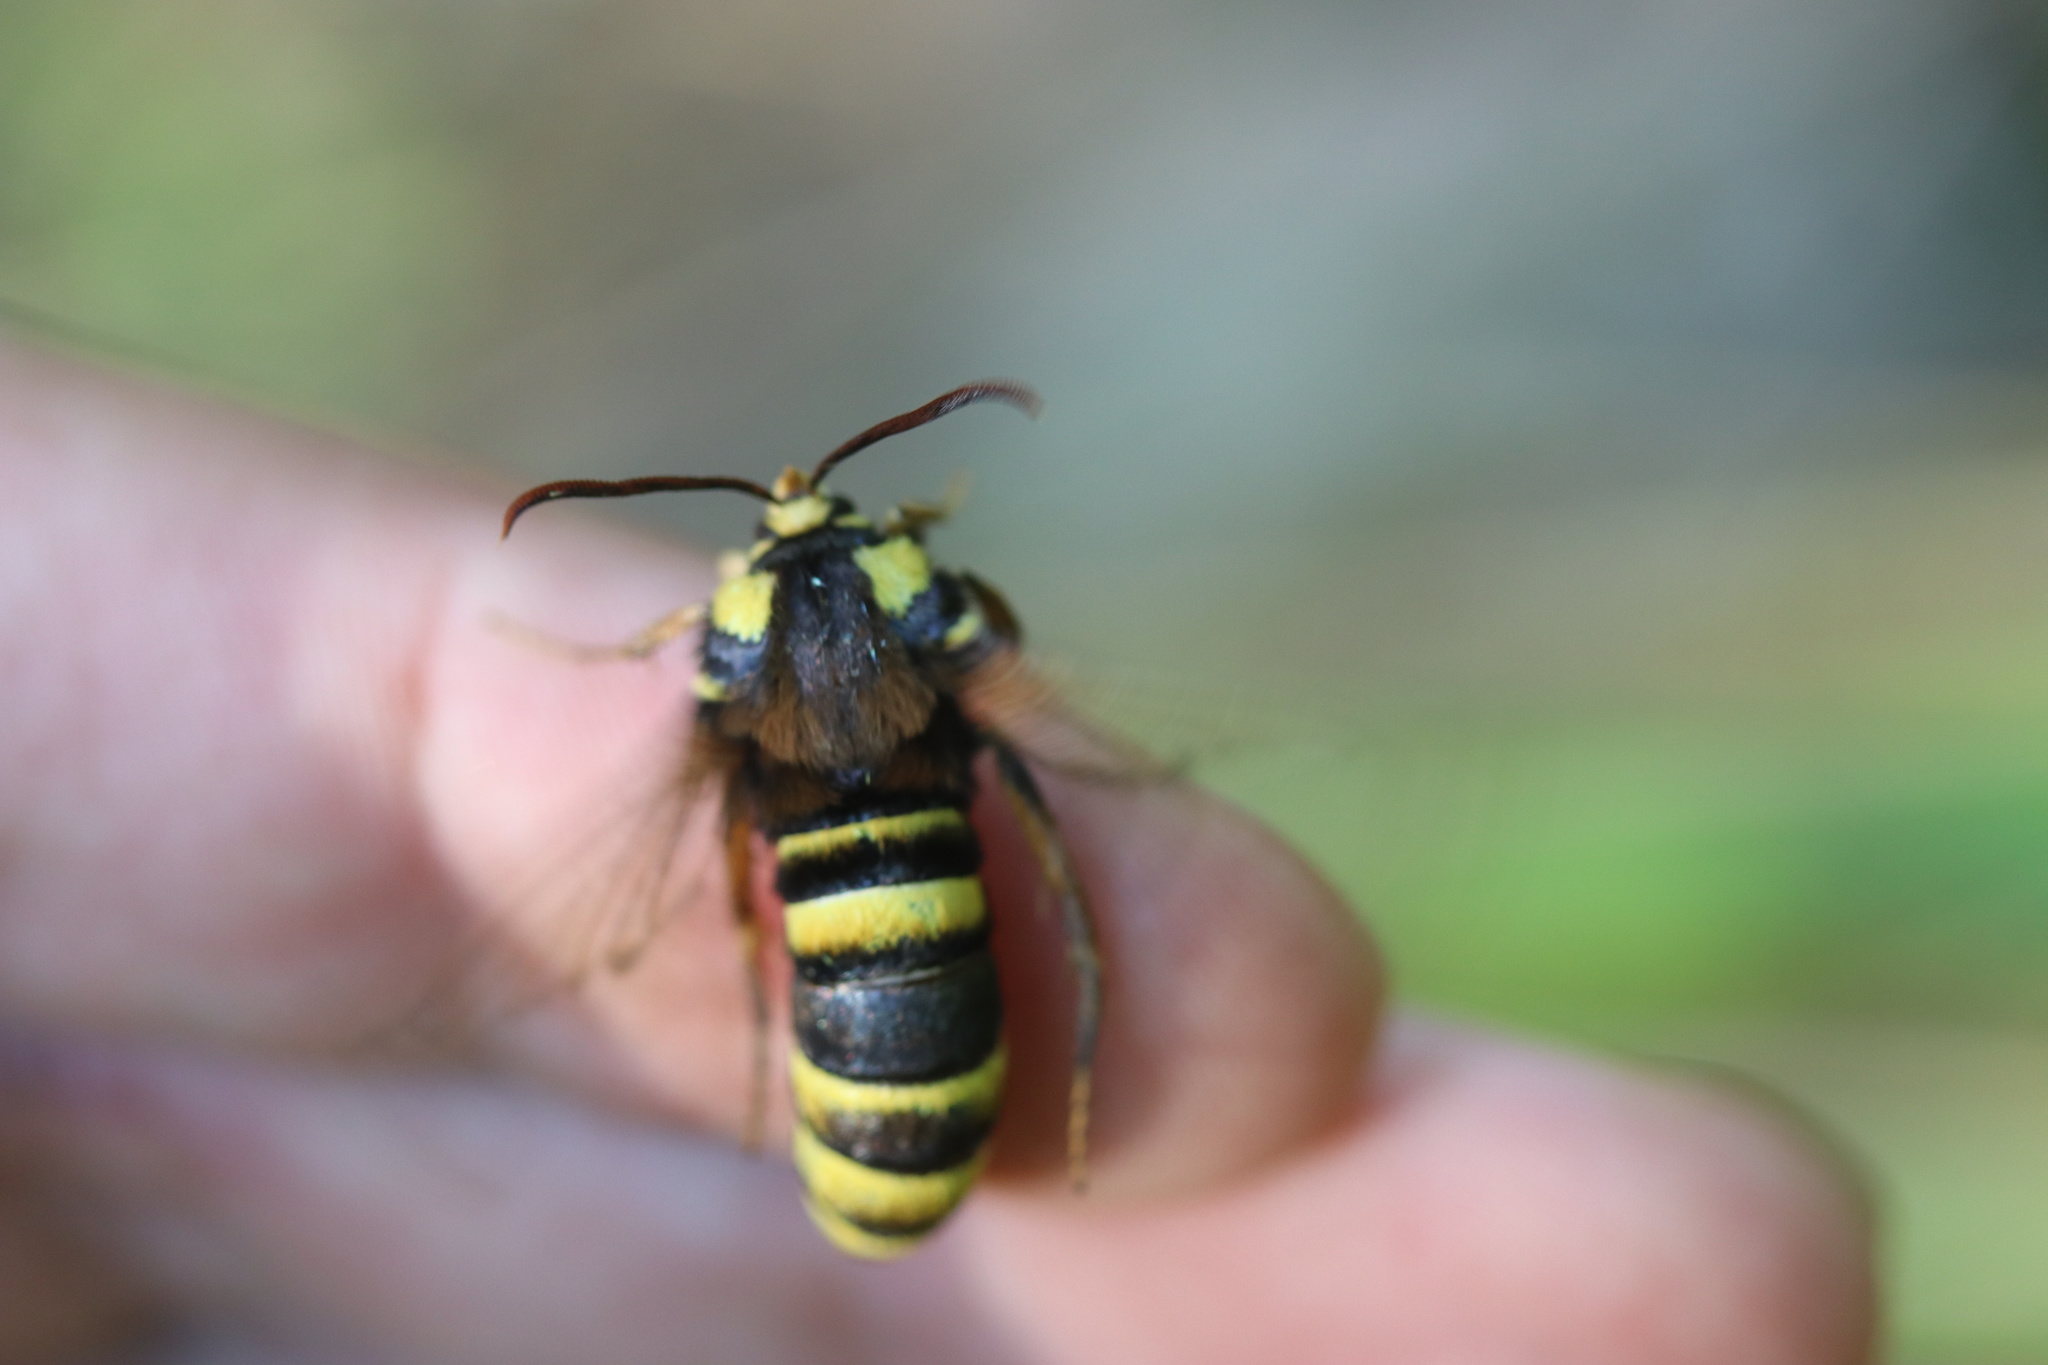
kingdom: Animalia
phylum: Arthropoda
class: Insecta
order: Lepidoptera
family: Sesiidae
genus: Sesia
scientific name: Sesia apiformis
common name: Hornet moth
